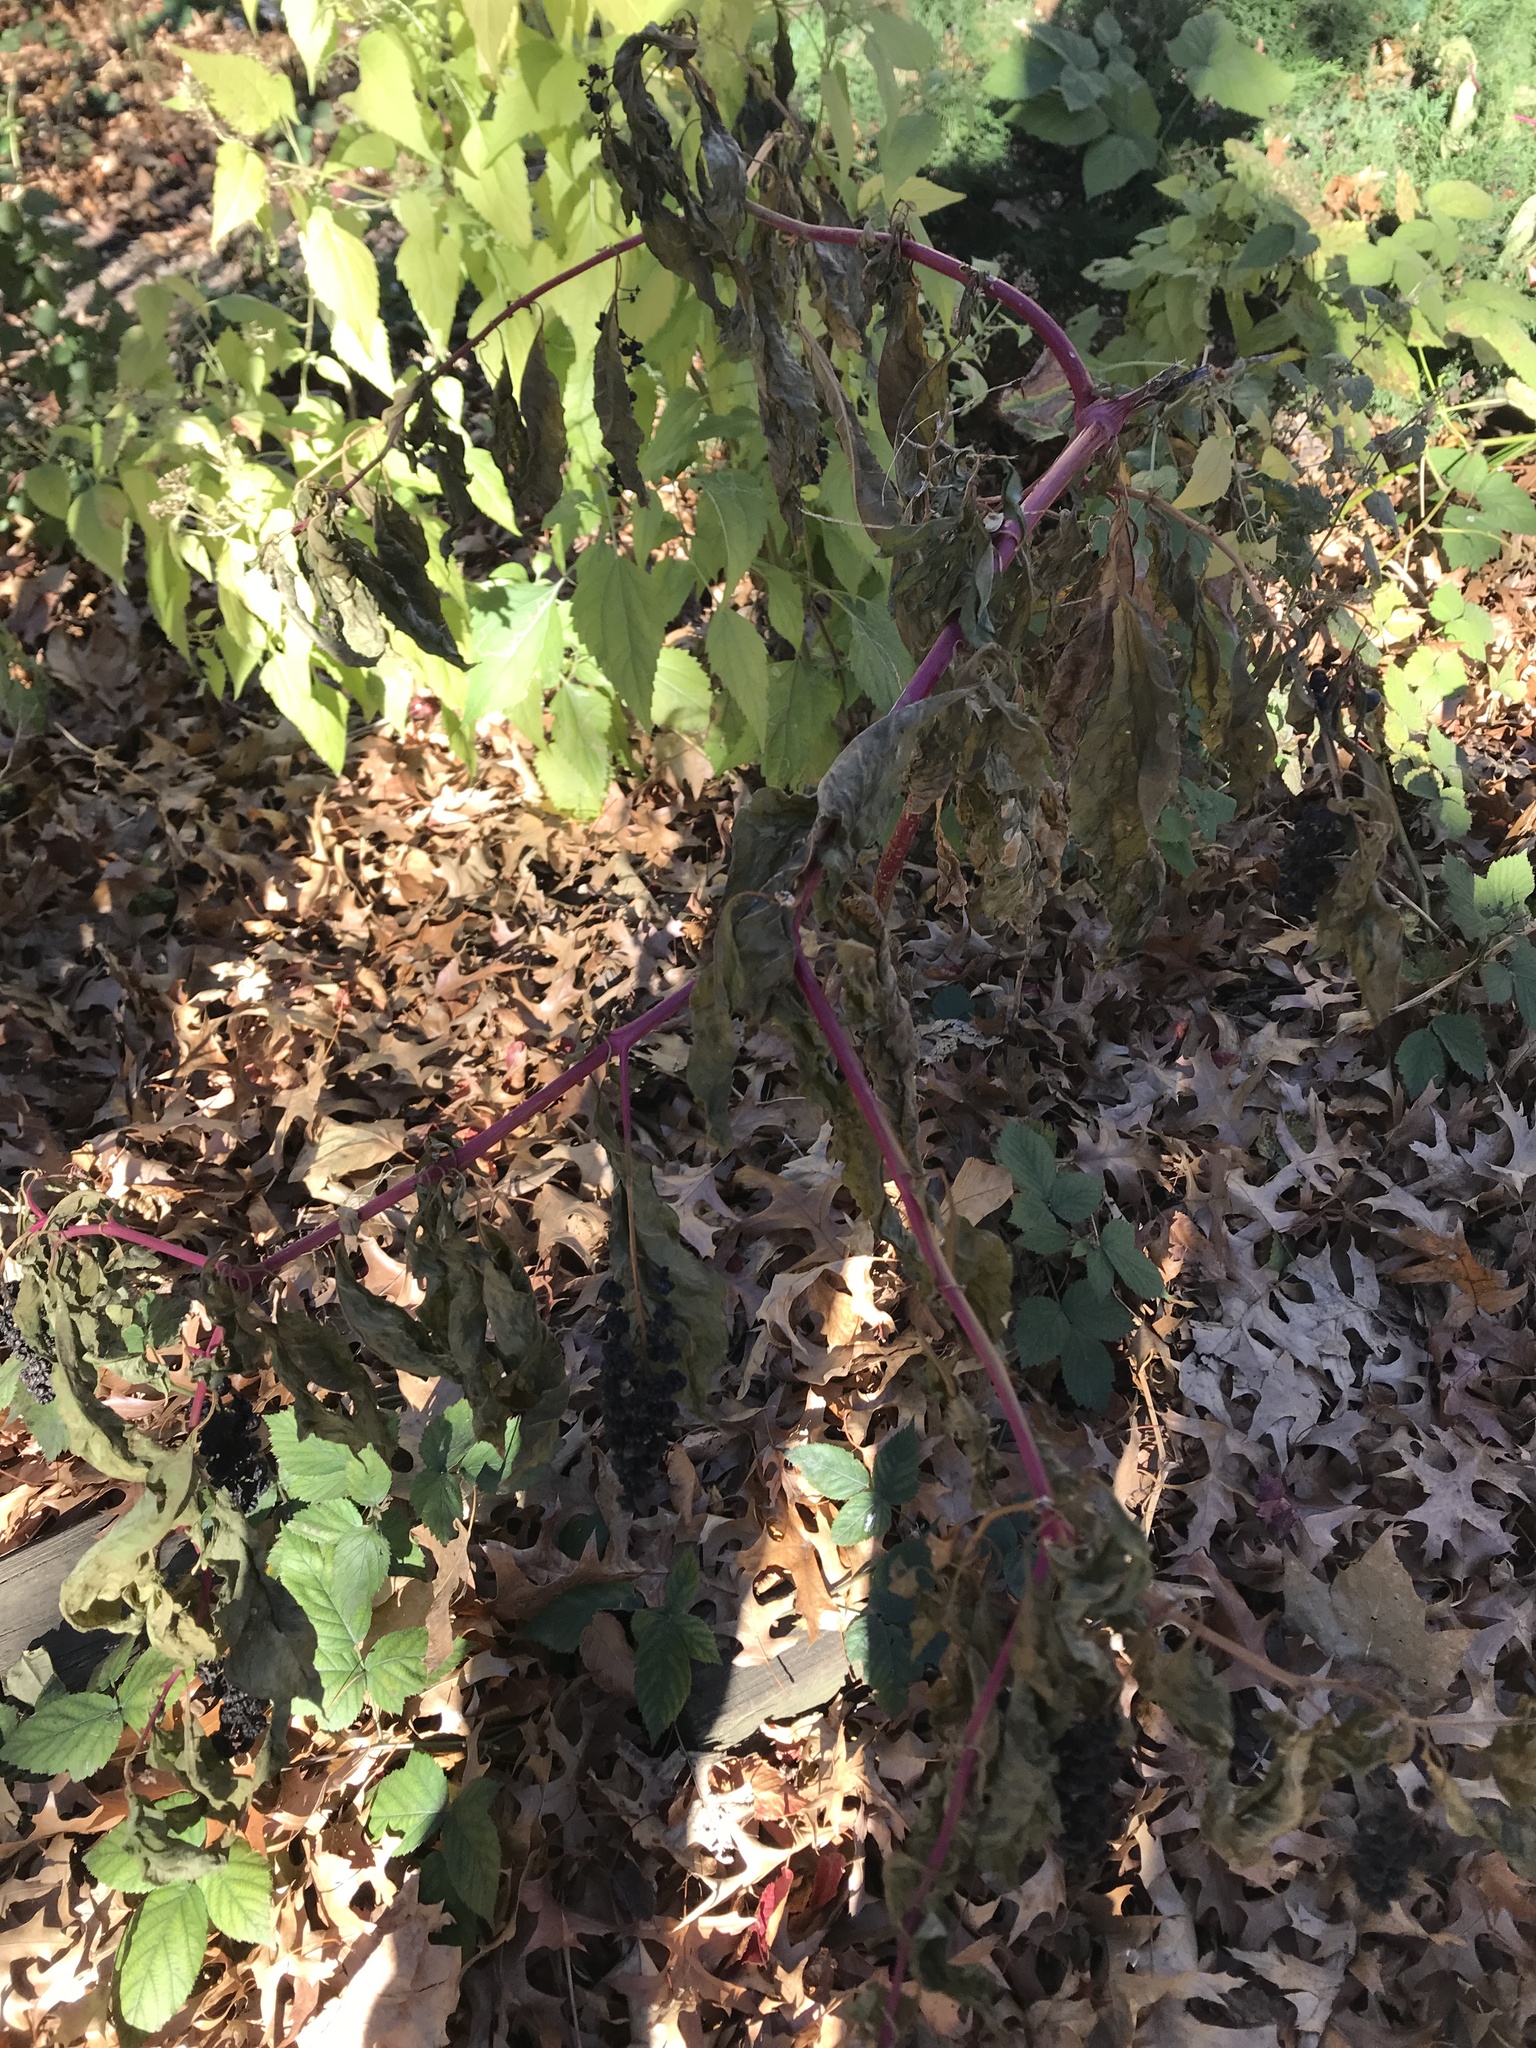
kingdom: Plantae
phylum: Tracheophyta
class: Magnoliopsida
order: Caryophyllales
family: Phytolaccaceae
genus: Phytolacca
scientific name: Phytolacca americana
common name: American pokeweed
